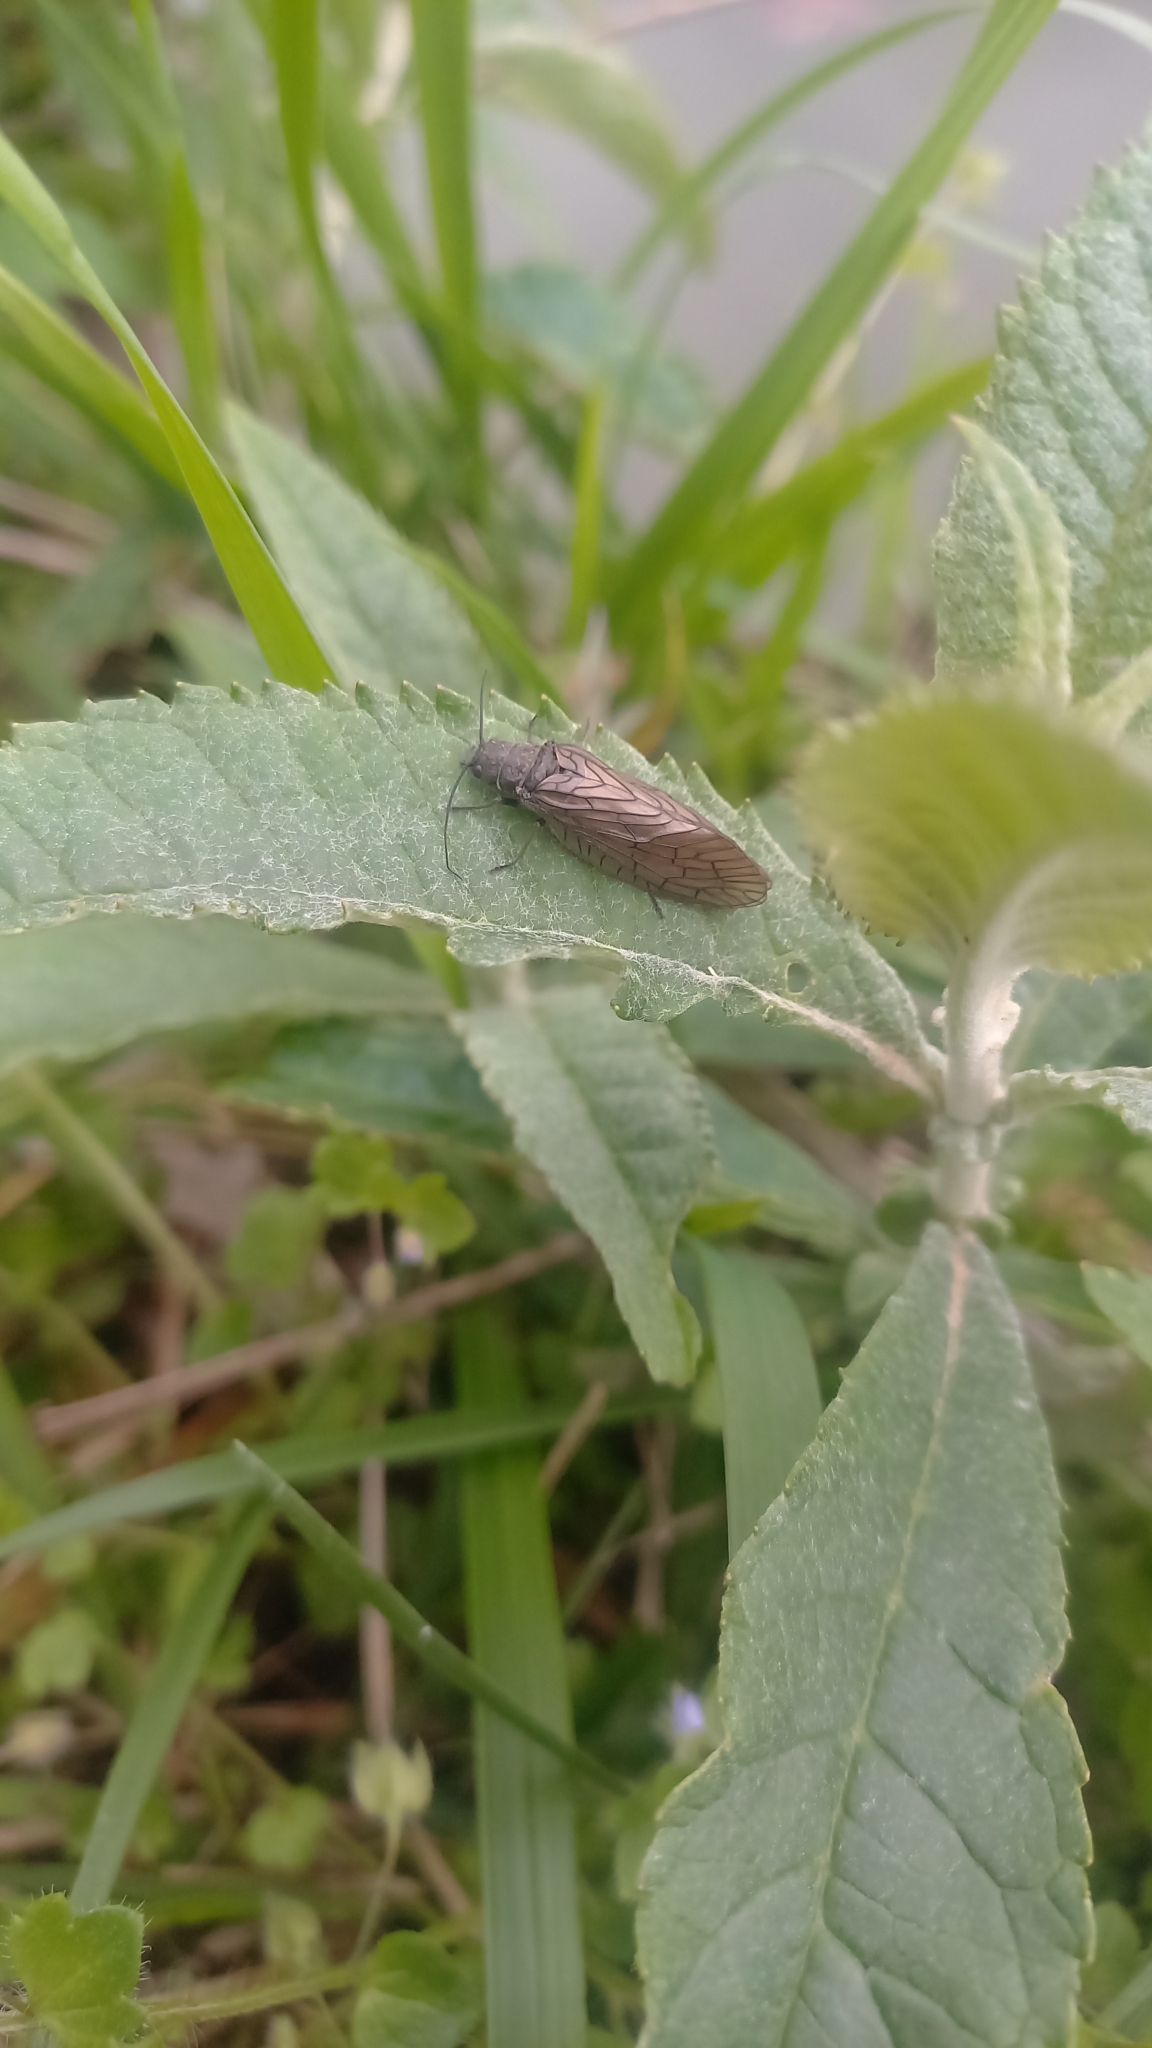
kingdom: Animalia
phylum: Arthropoda
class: Insecta
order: Megaloptera
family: Sialidae
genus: Sialis
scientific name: Sialis
